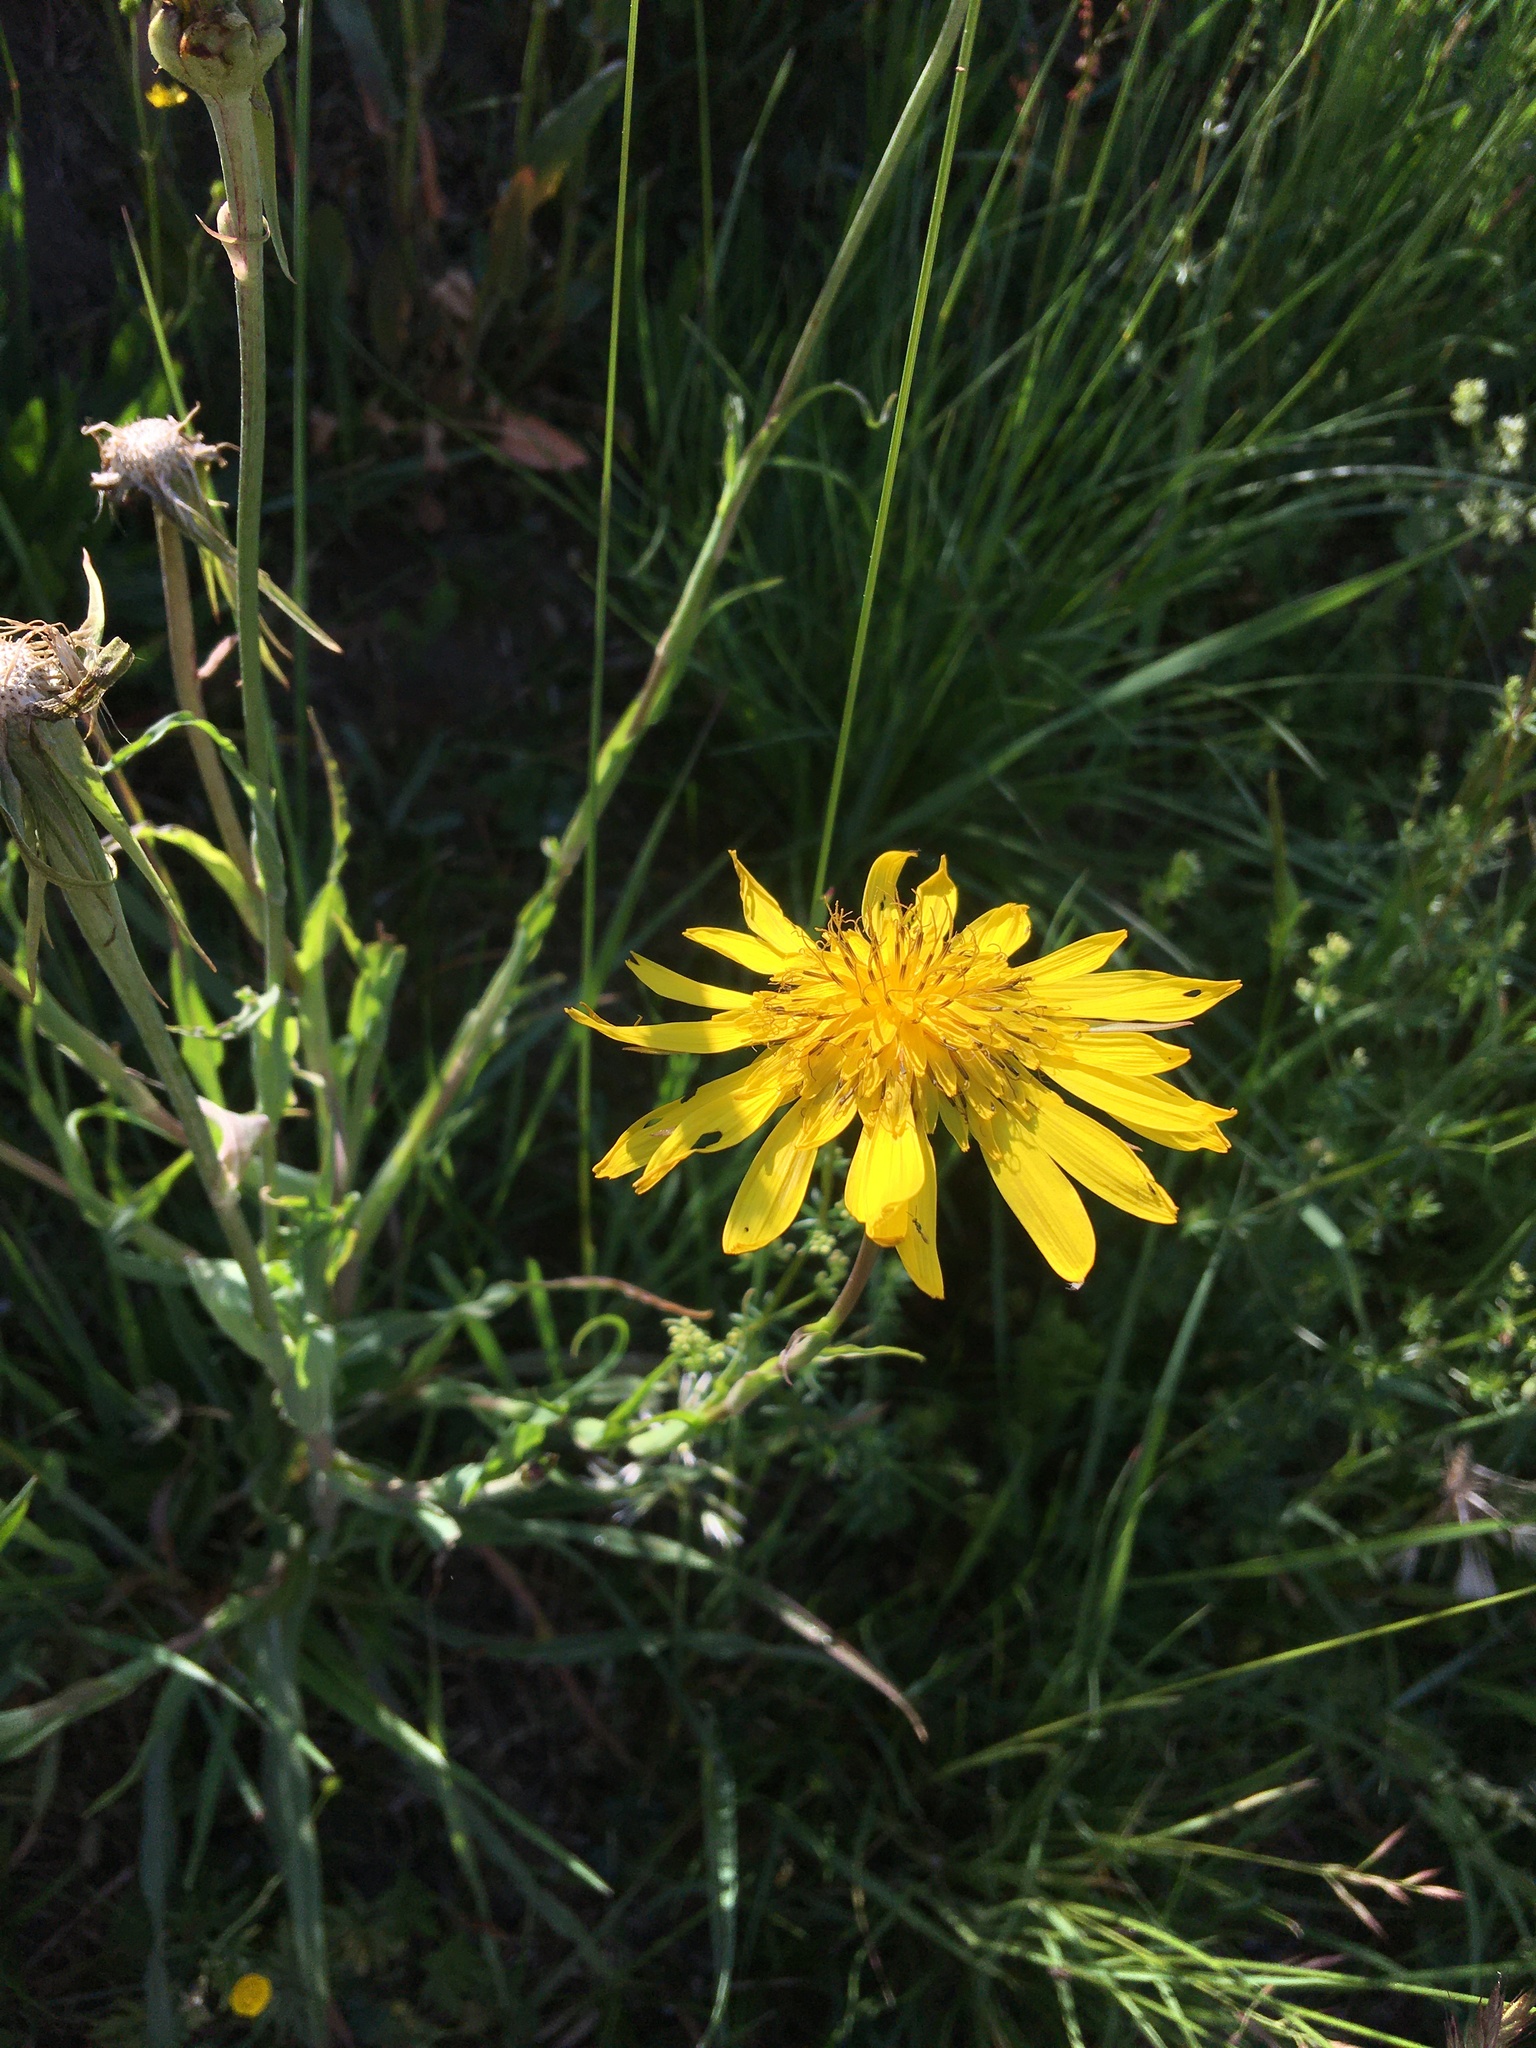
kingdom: Plantae
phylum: Tracheophyta
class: Magnoliopsida
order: Asterales
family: Asteraceae
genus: Tragopogon
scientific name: Tragopogon orientalis
